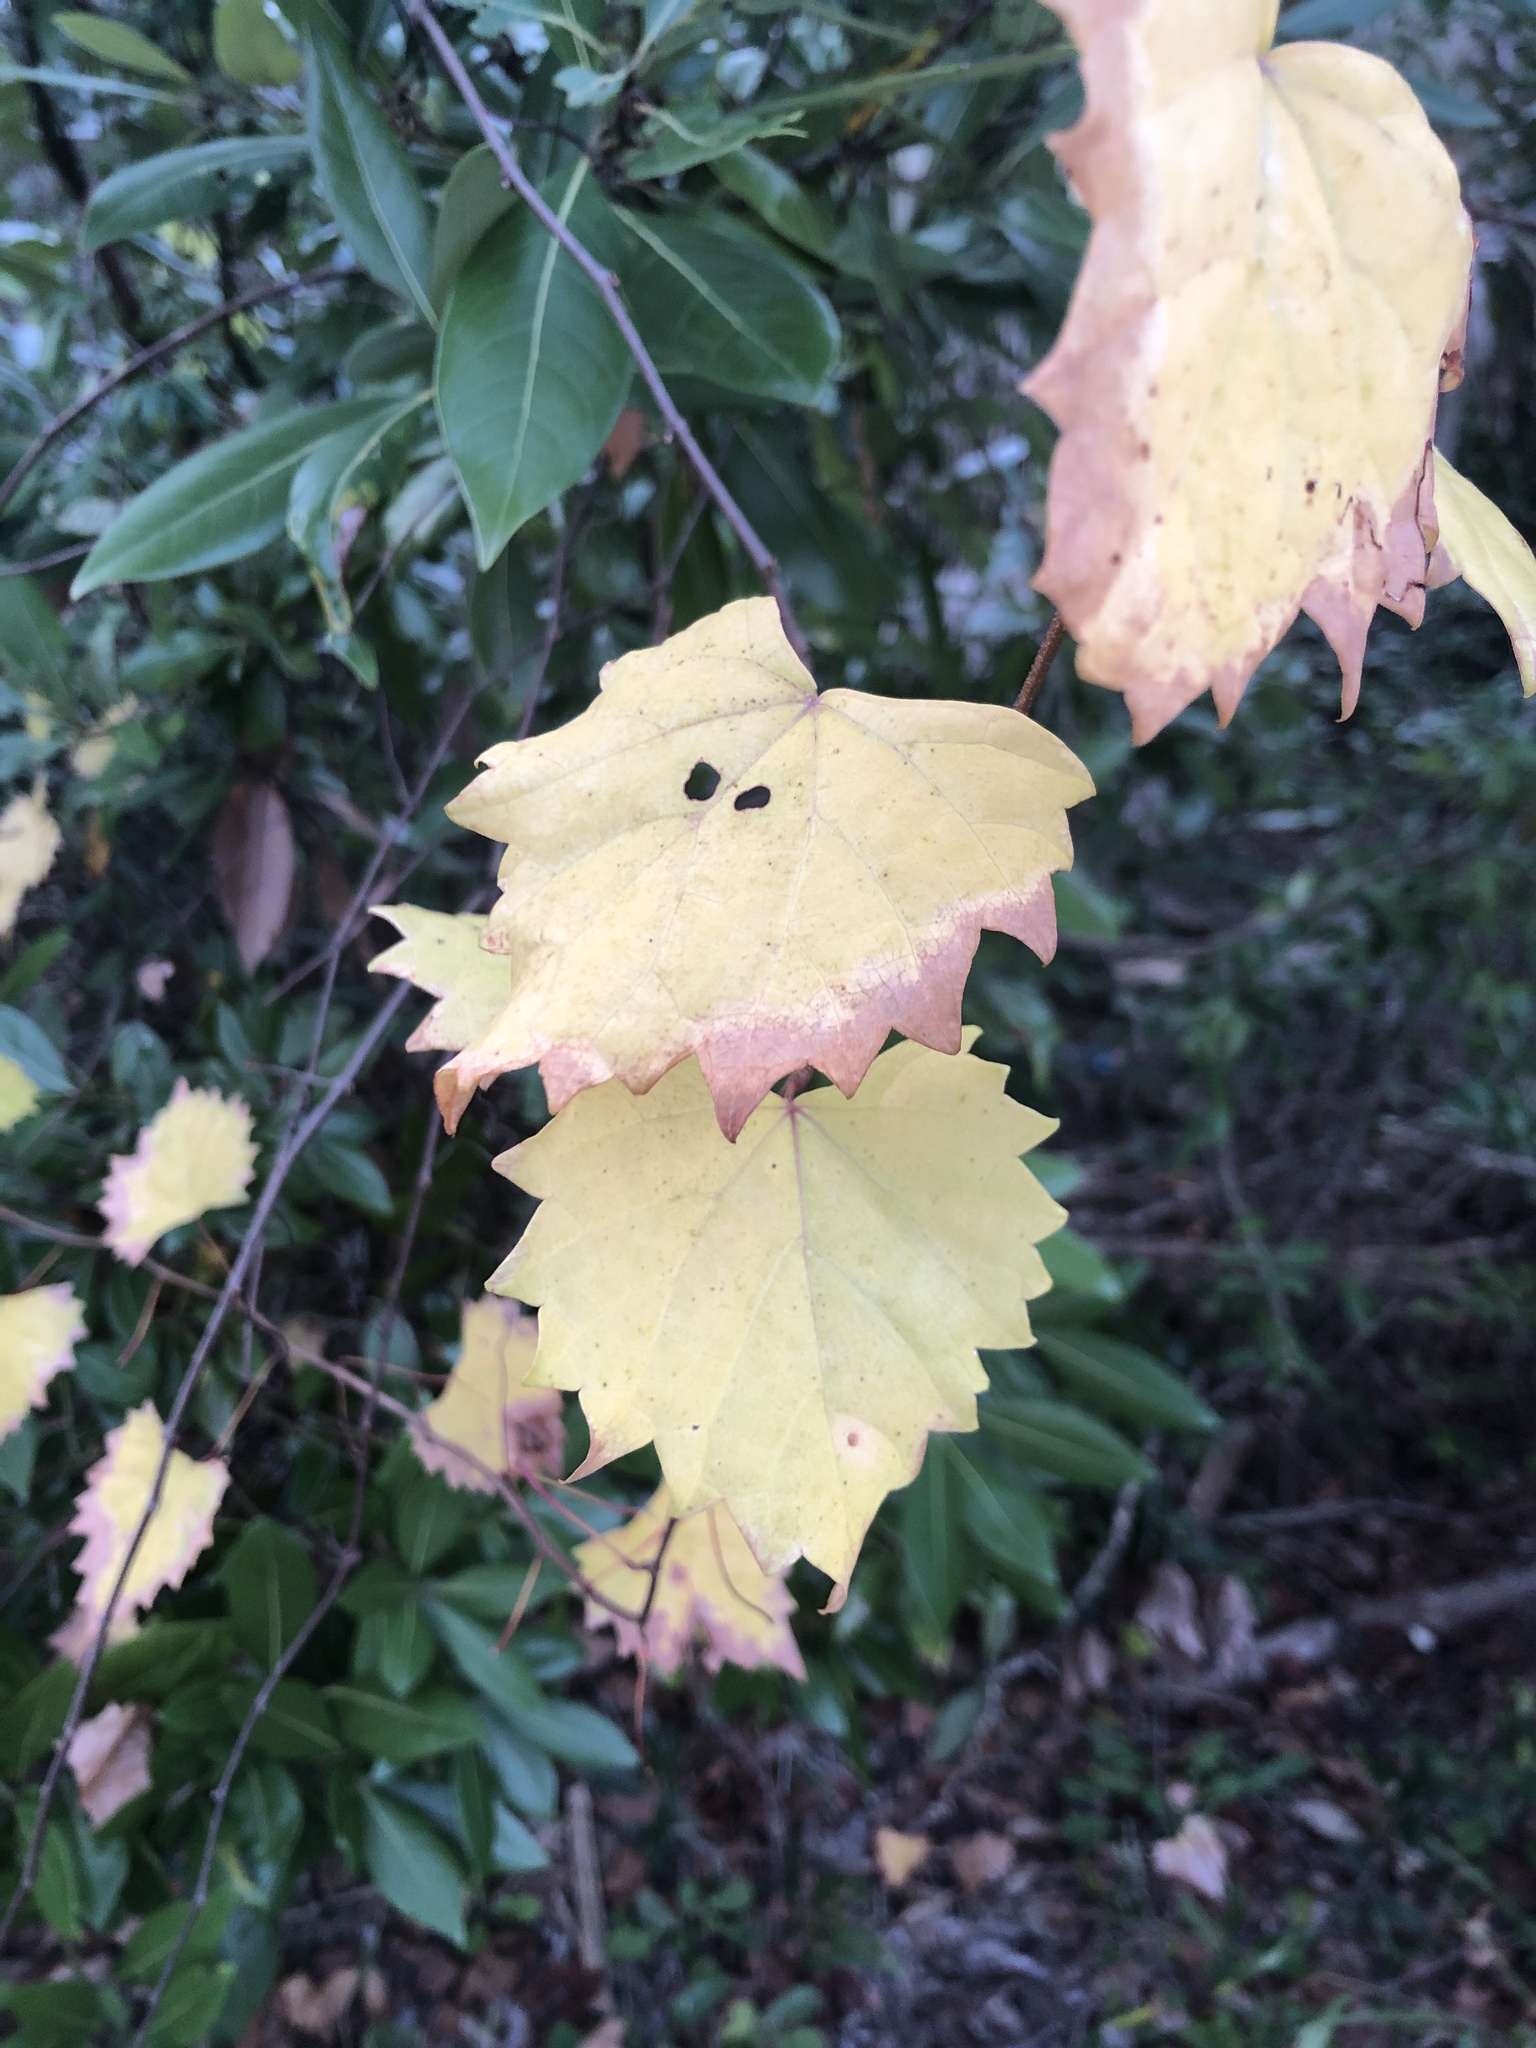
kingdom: Plantae
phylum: Tracheophyta
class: Magnoliopsida
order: Vitales
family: Vitaceae
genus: Vitis
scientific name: Vitis rotundifolia
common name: Muscadine grape
